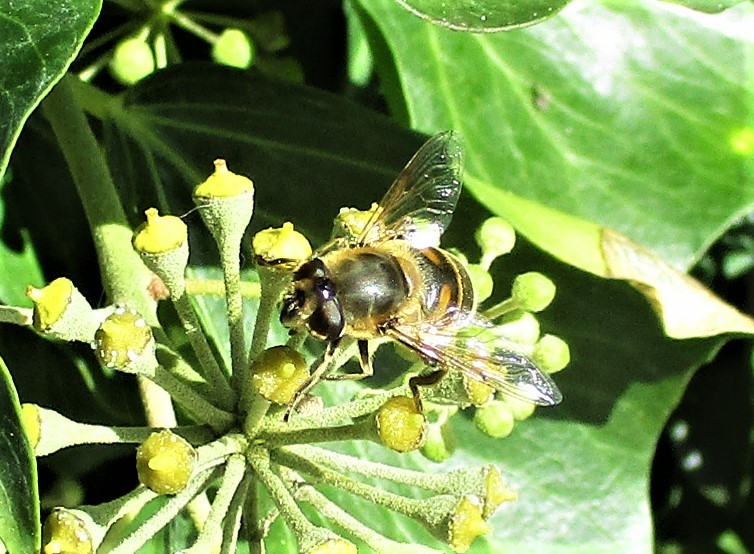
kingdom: Animalia
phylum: Arthropoda
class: Insecta
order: Diptera
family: Syrphidae
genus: Eristalis
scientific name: Eristalis tenax
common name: Drone fly
